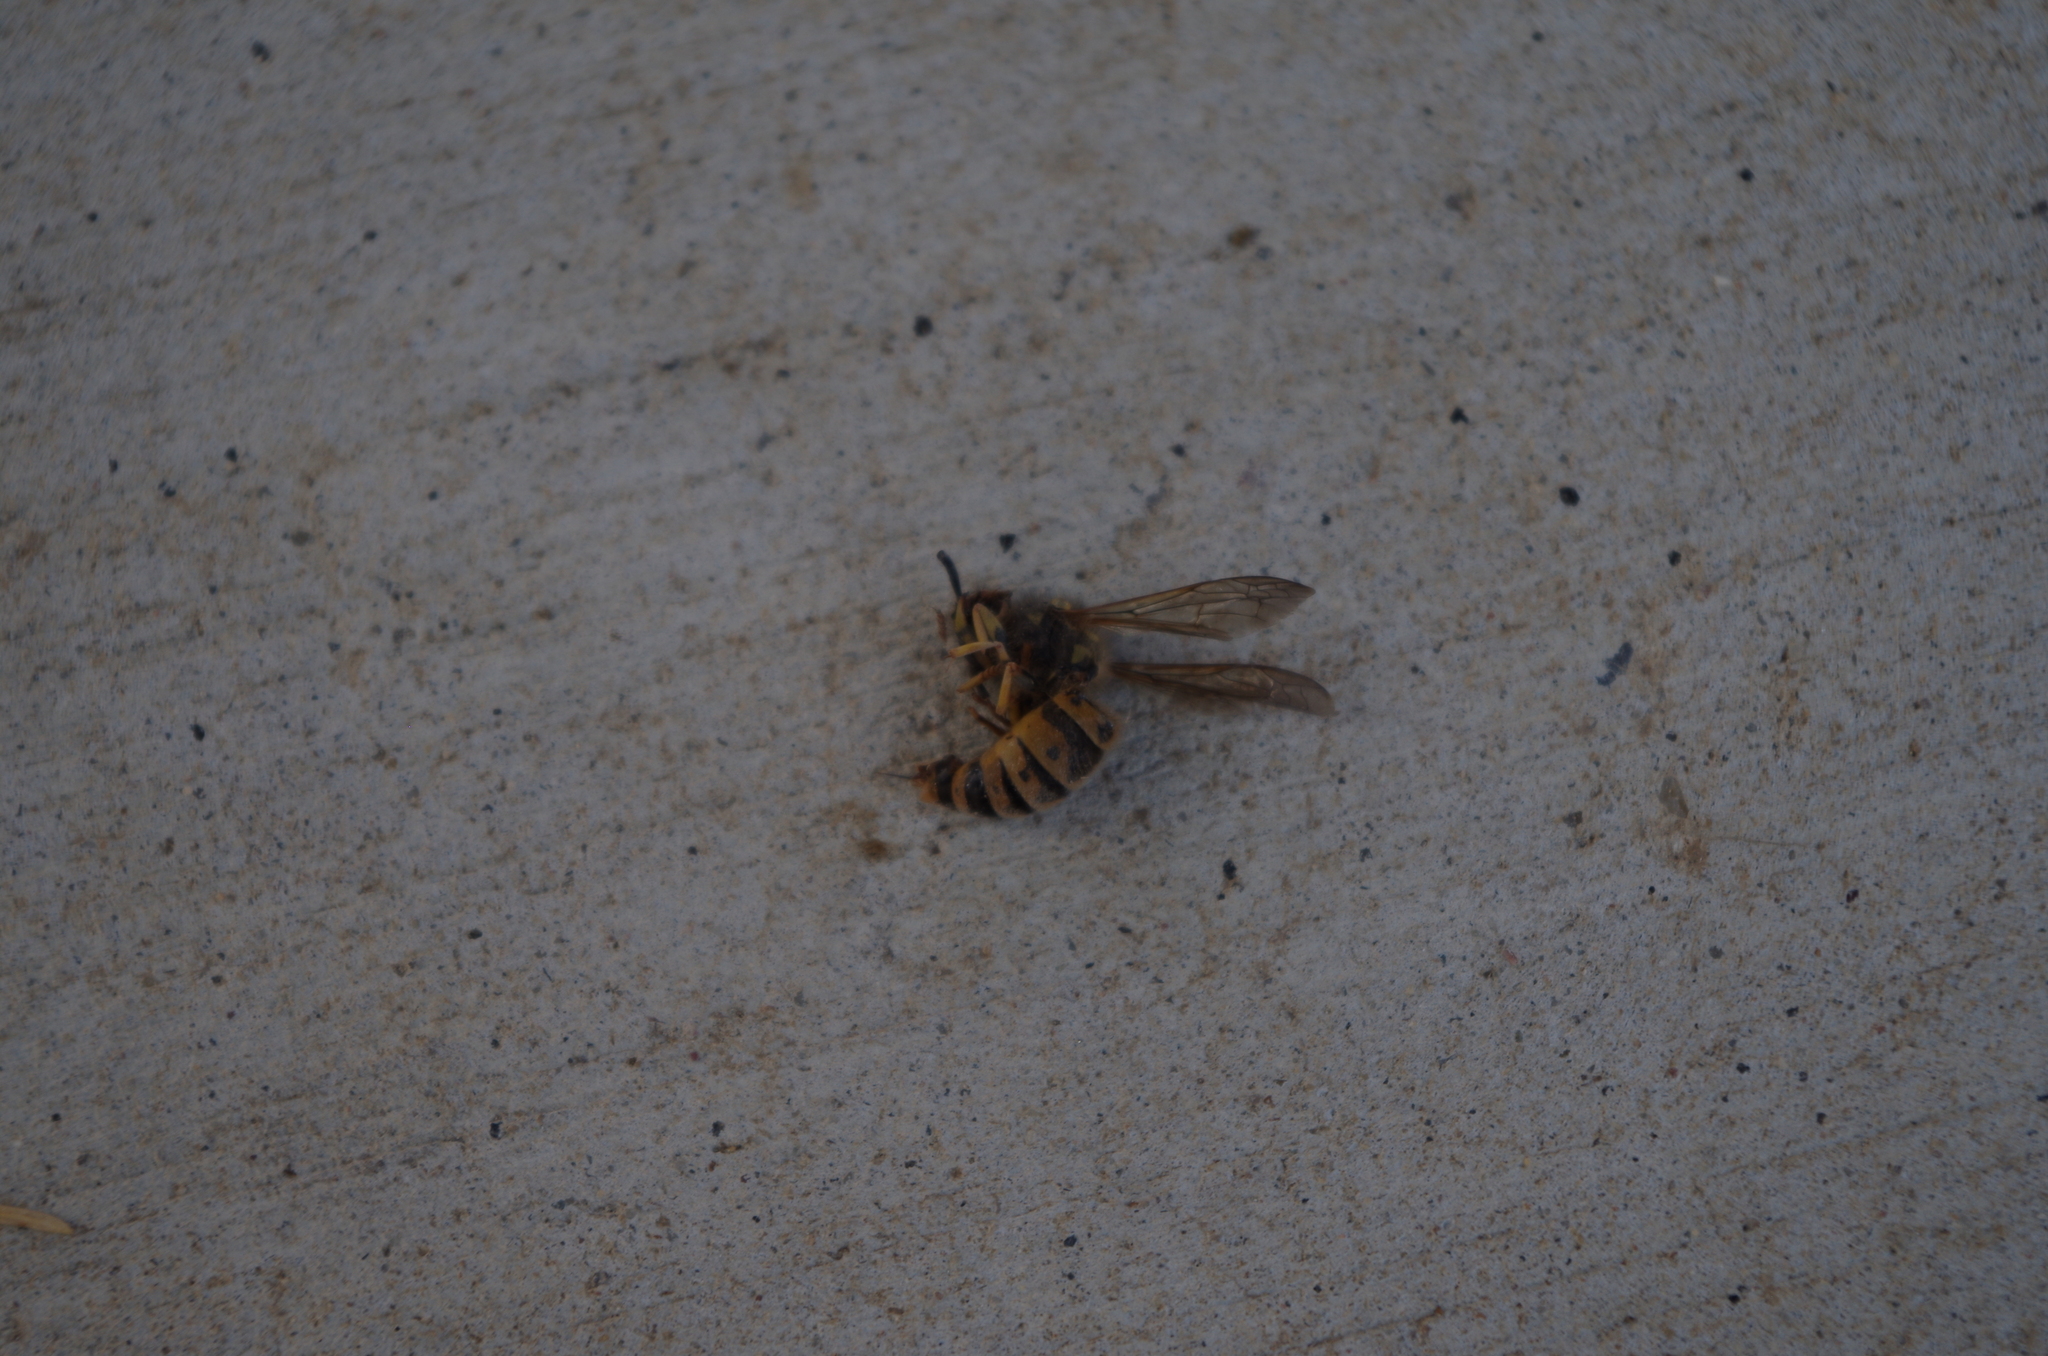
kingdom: Animalia
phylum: Arthropoda
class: Insecta
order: Hymenoptera
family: Vespidae
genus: Vespula
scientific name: Vespula germanica
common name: German wasp
